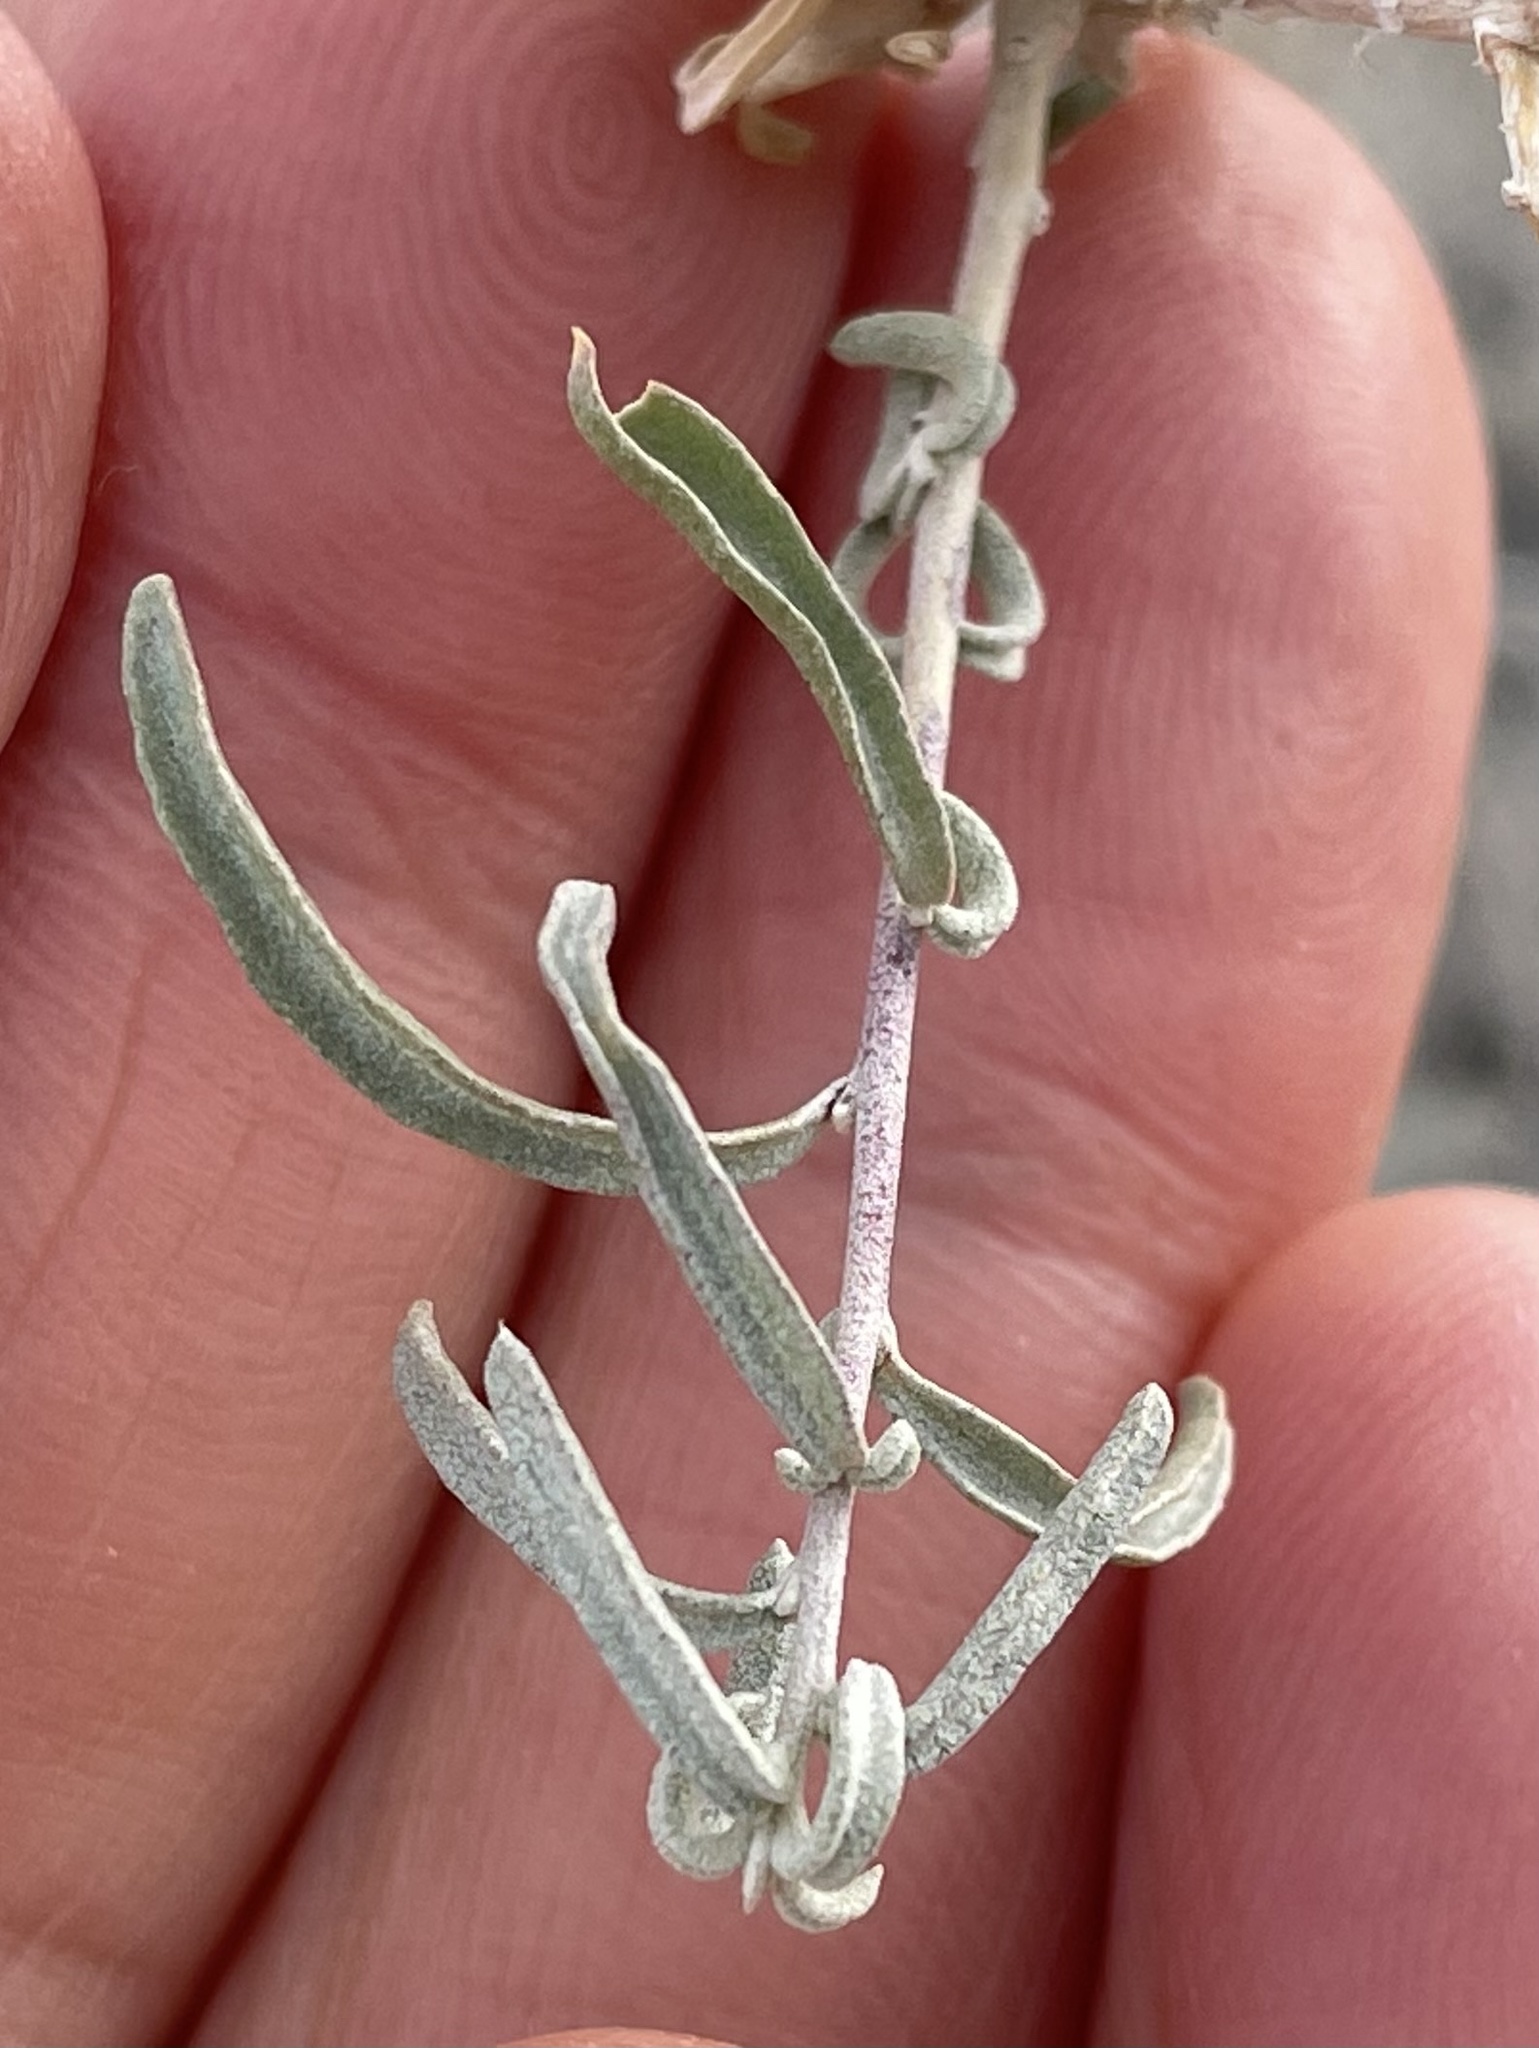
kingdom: Plantae
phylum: Tracheophyta
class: Magnoliopsida
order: Caryophyllales
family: Amaranthaceae
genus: Atriplex
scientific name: Atriplex canescens
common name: Four-wing saltbush
